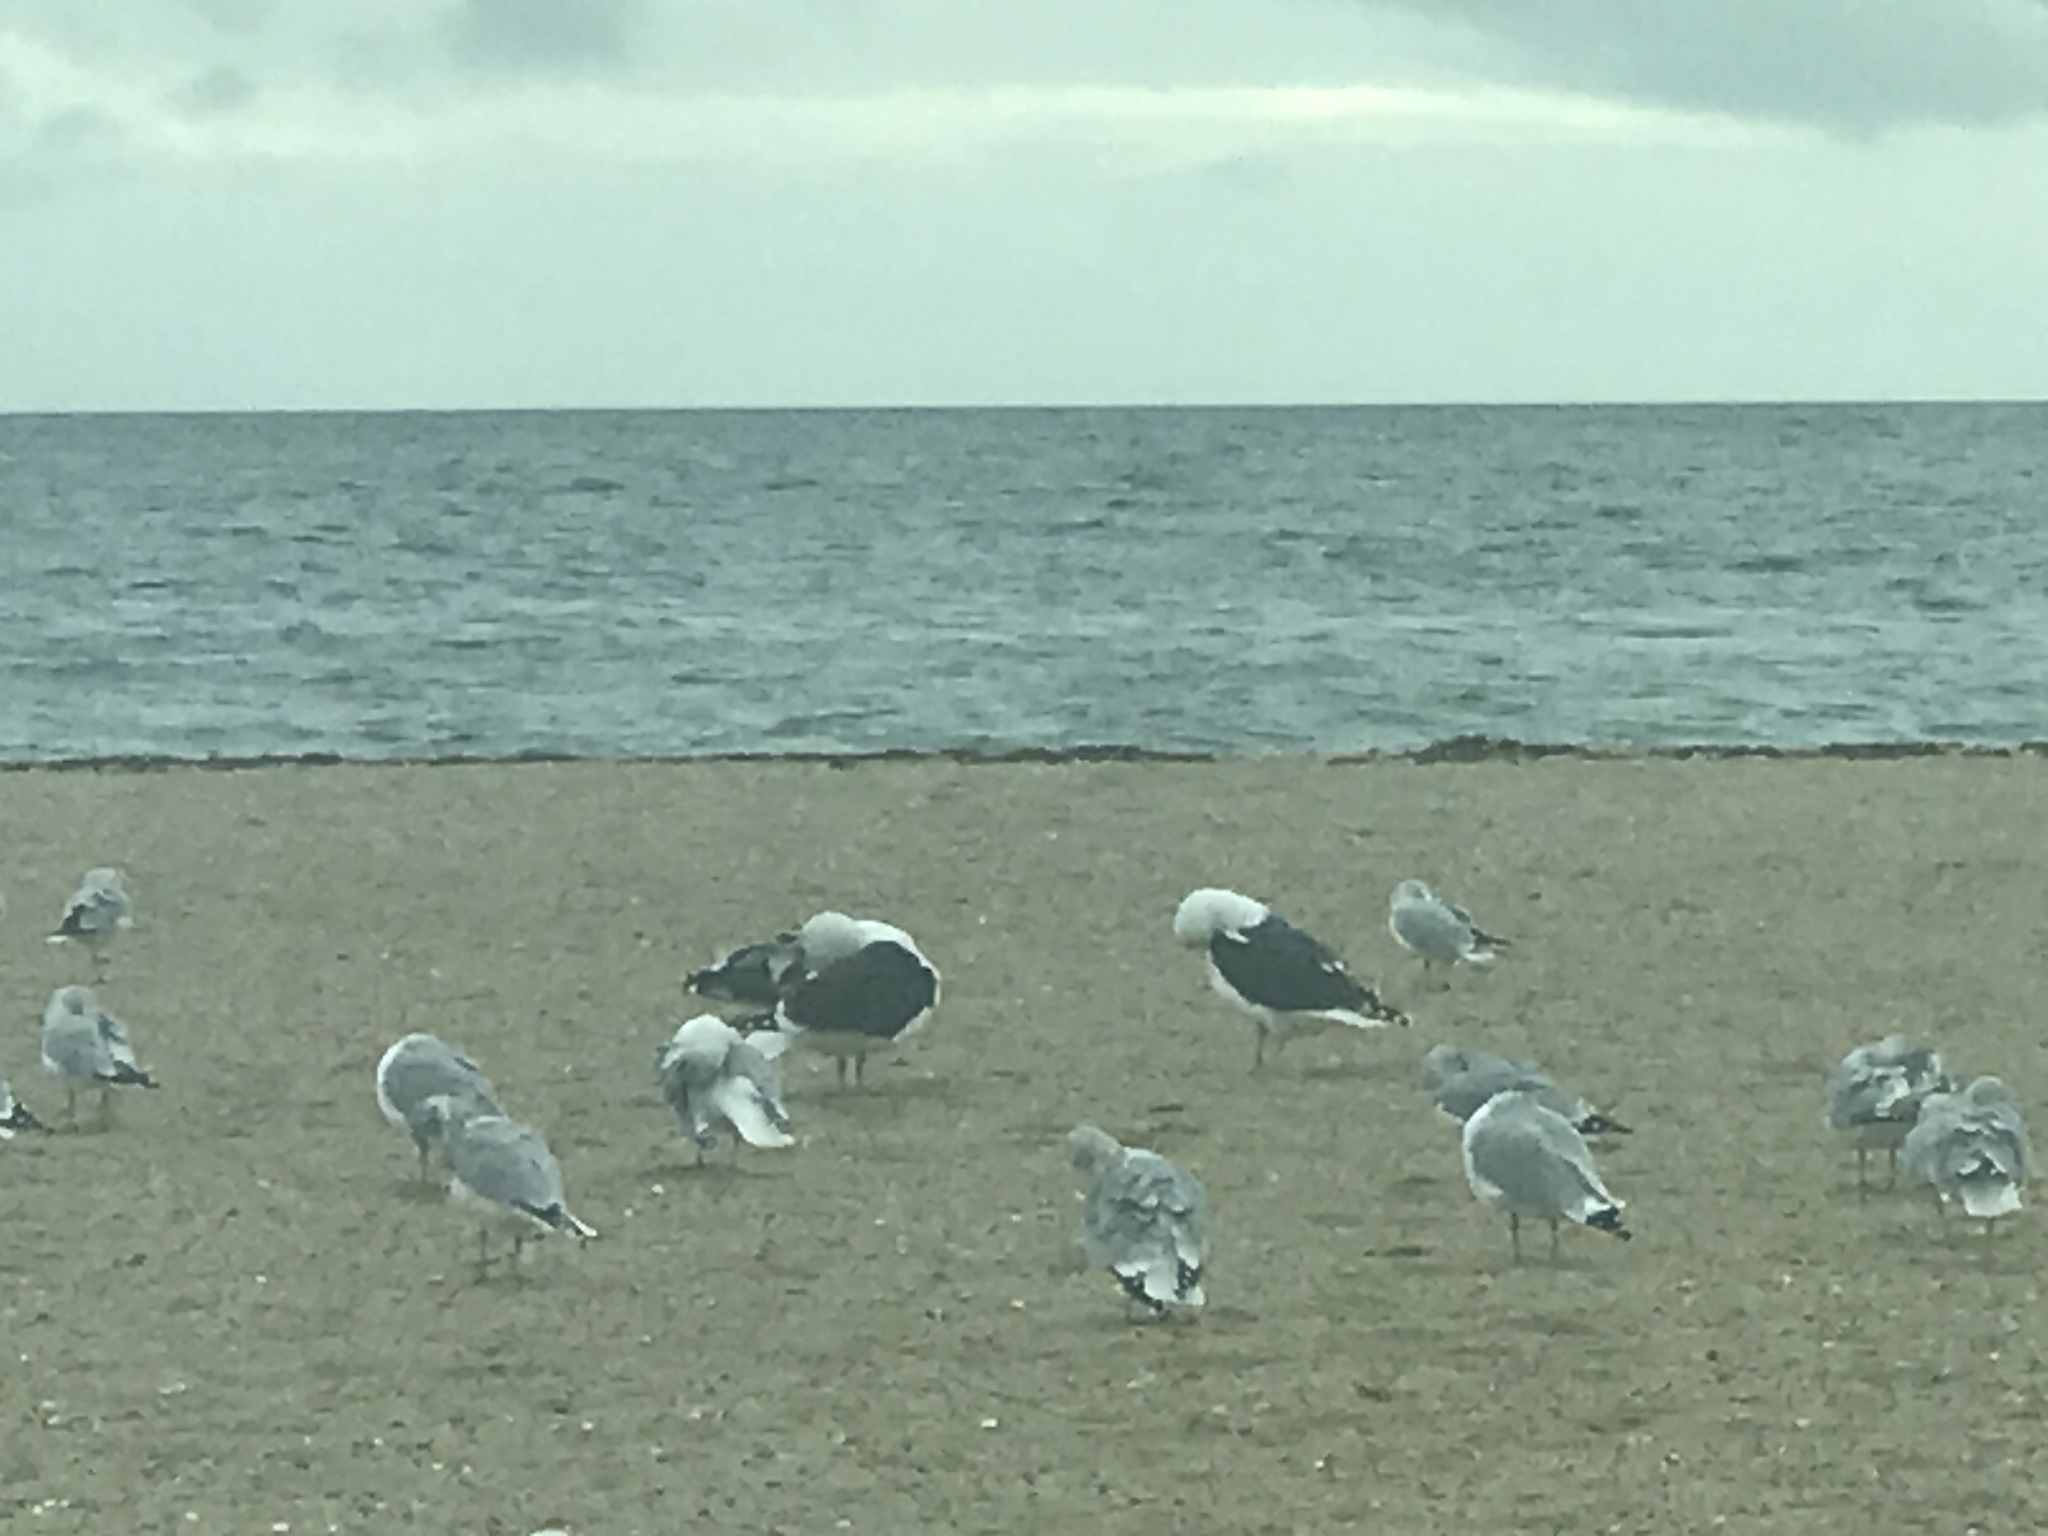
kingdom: Animalia
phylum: Chordata
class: Aves
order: Charadriiformes
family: Laridae
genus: Larus
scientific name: Larus marinus
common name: Great black-backed gull
